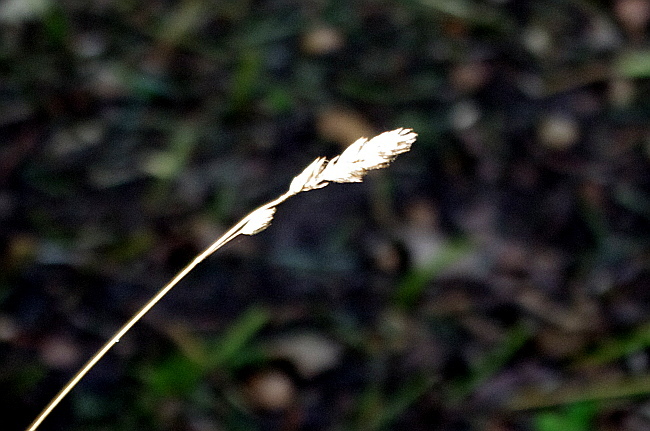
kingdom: Plantae
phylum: Tracheophyta
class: Liliopsida
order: Poales
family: Poaceae
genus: Dactylis
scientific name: Dactylis glomerata
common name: Orchardgrass
